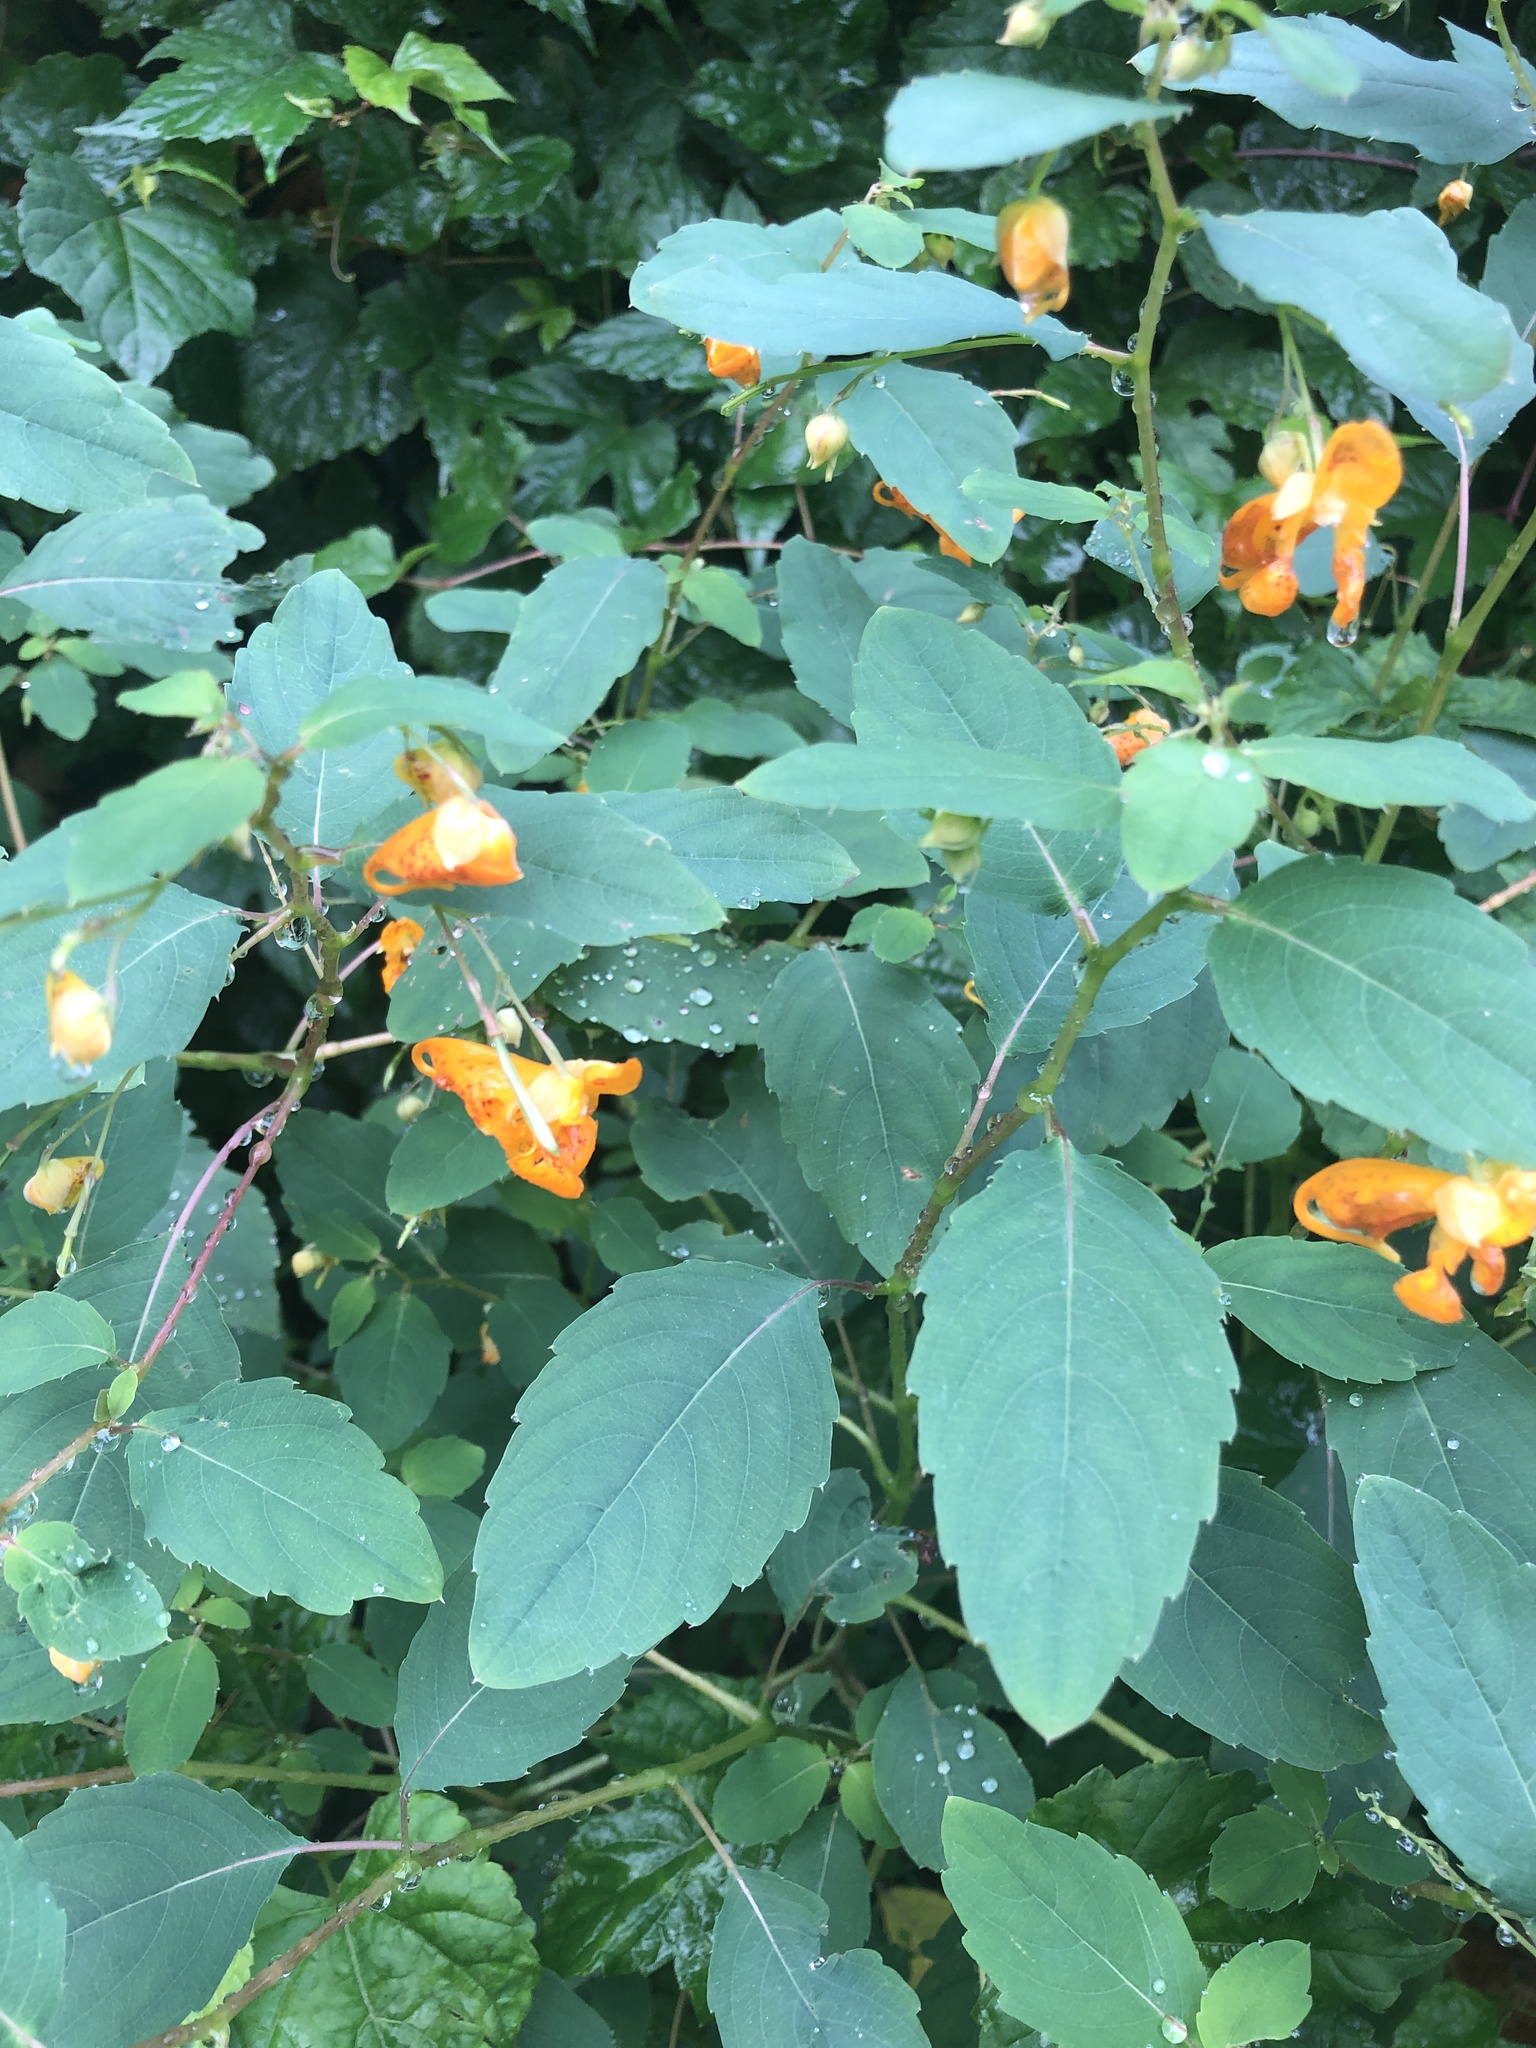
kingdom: Plantae
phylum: Tracheophyta
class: Magnoliopsida
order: Ericales
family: Balsaminaceae
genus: Impatiens
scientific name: Impatiens capensis
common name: Orange balsam
